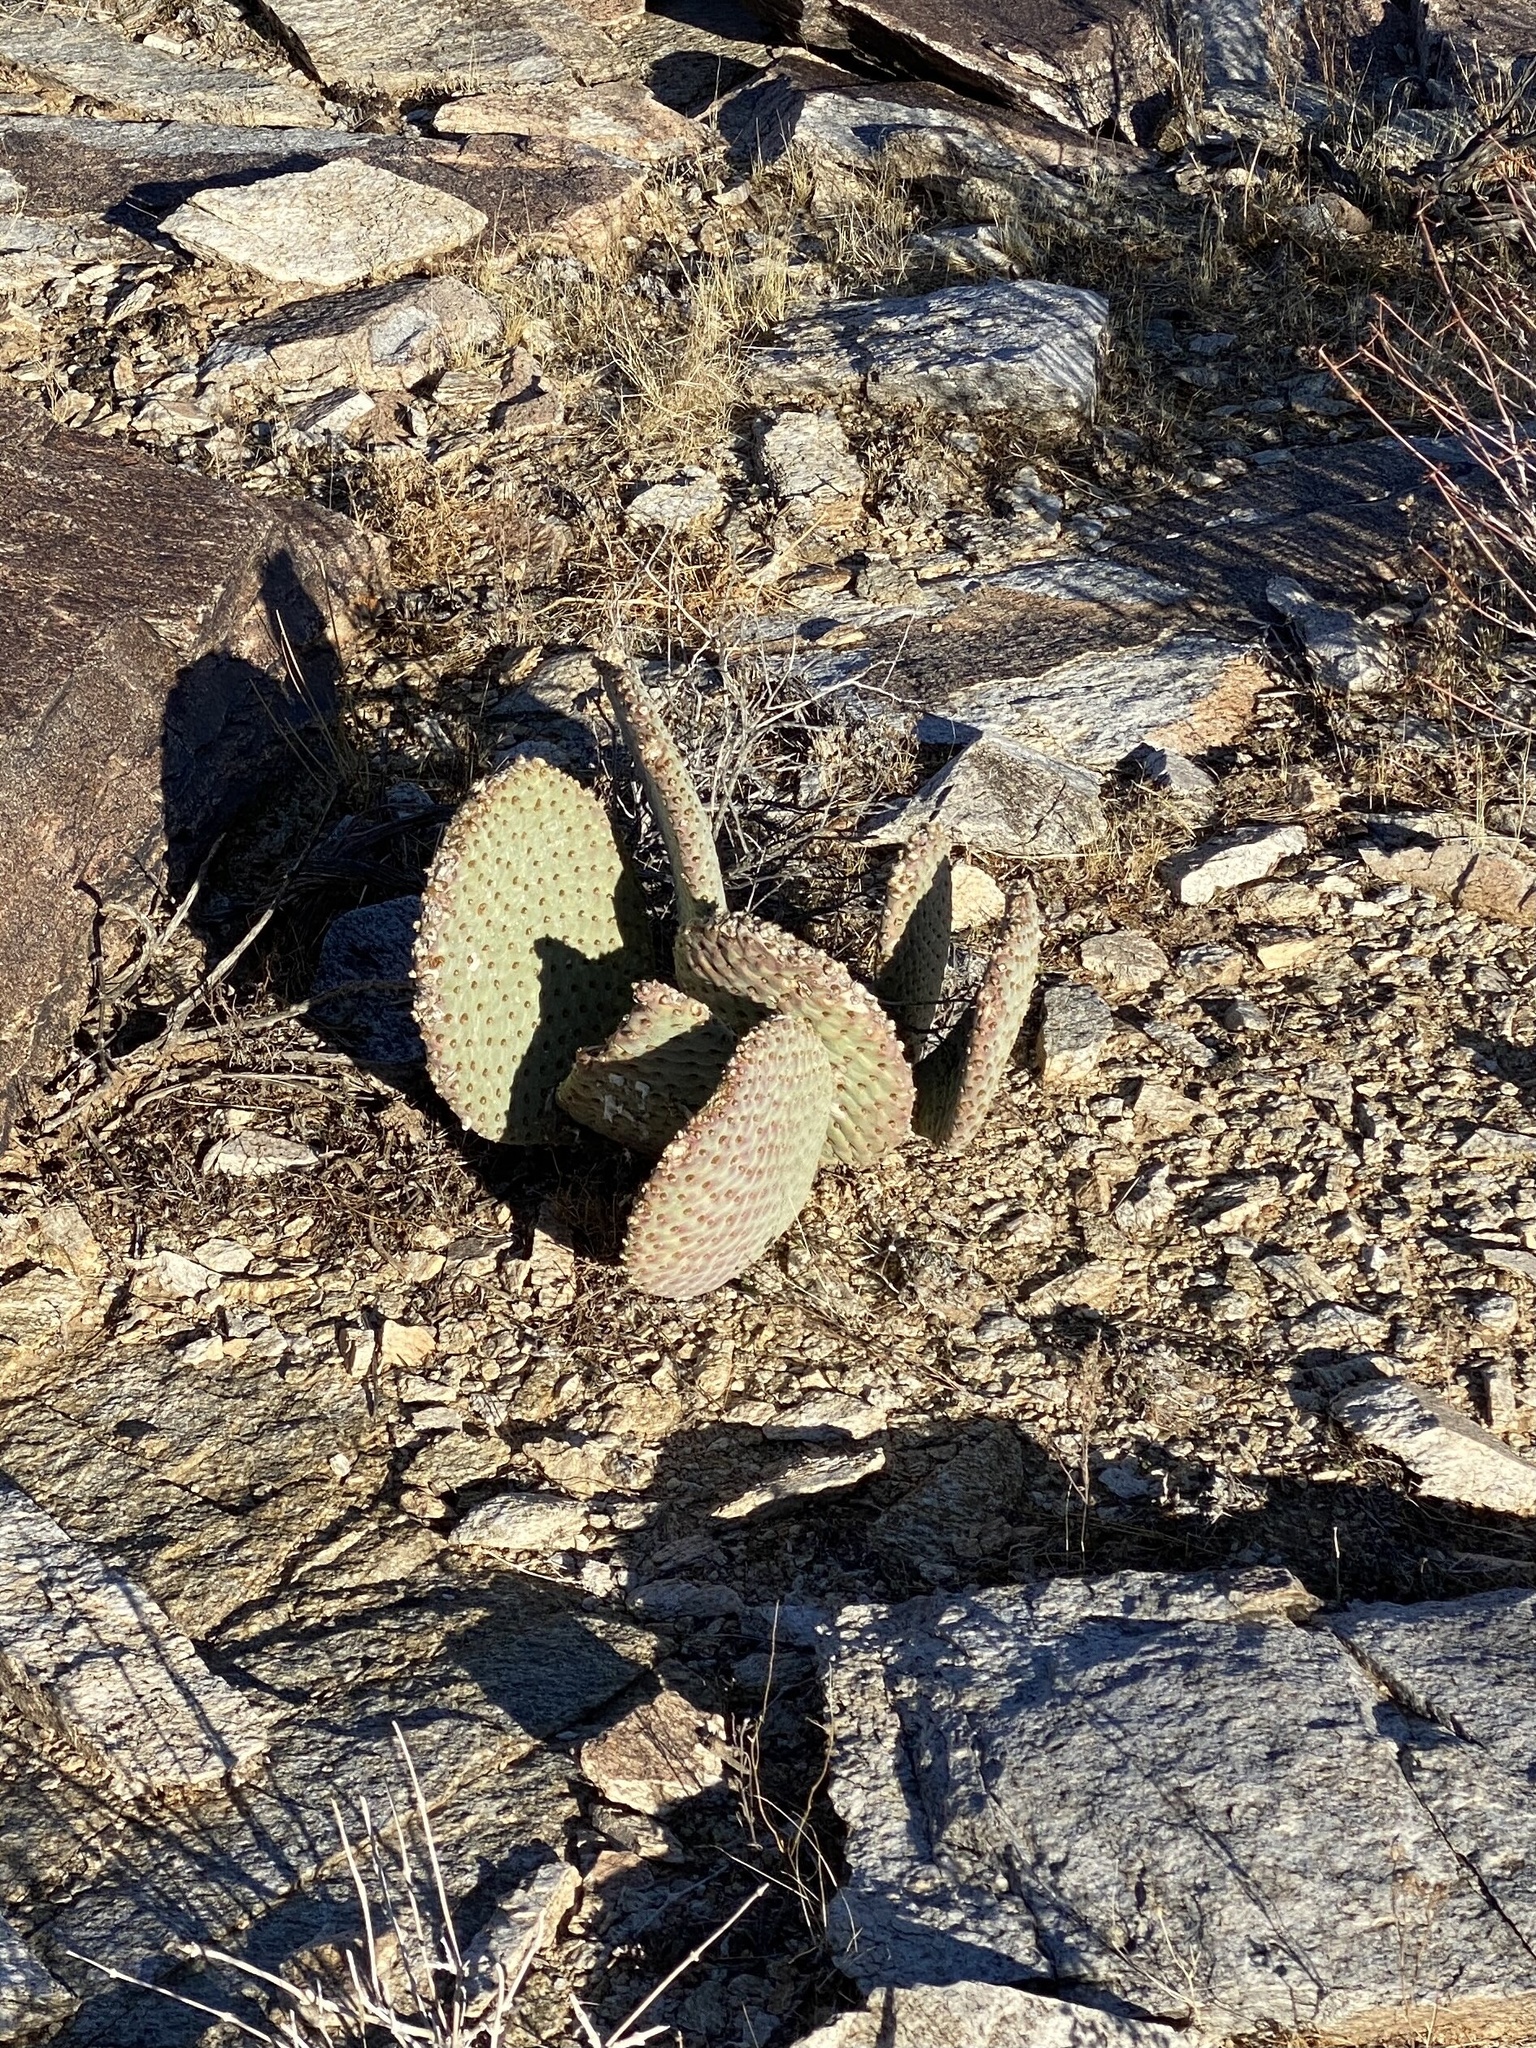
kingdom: Plantae
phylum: Tracheophyta
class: Magnoliopsida
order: Caryophyllales
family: Cactaceae
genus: Opuntia
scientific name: Opuntia basilaris
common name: Beavertail prickly-pear
